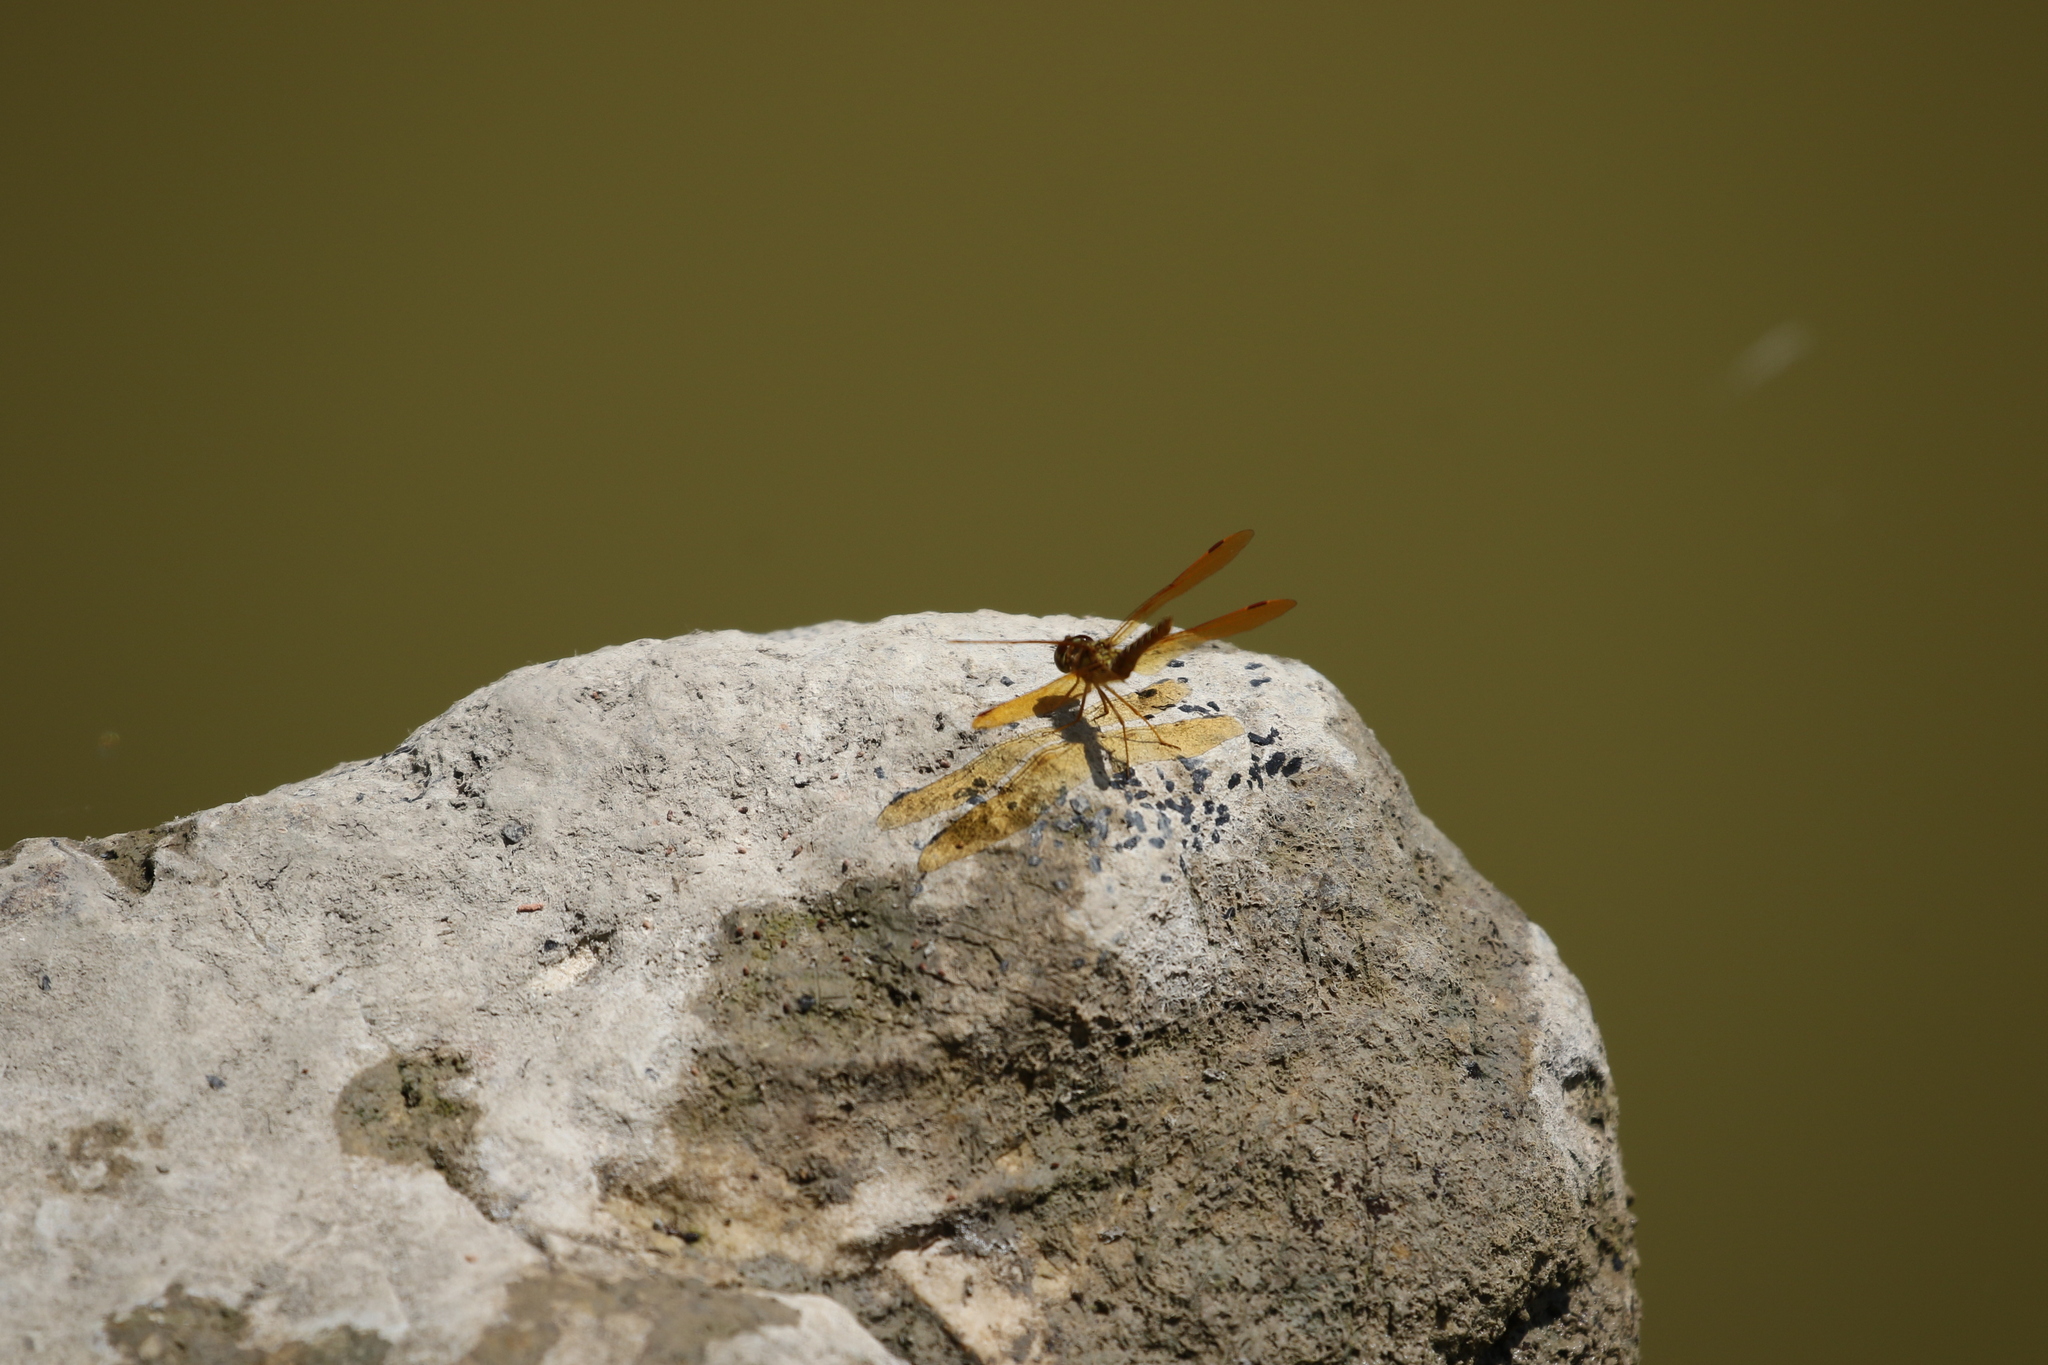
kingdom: Animalia
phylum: Arthropoda
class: Insecta
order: Odonata
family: Libellulidae
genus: Perithemis
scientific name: Perithemis tenera
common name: Eastern amberwing
